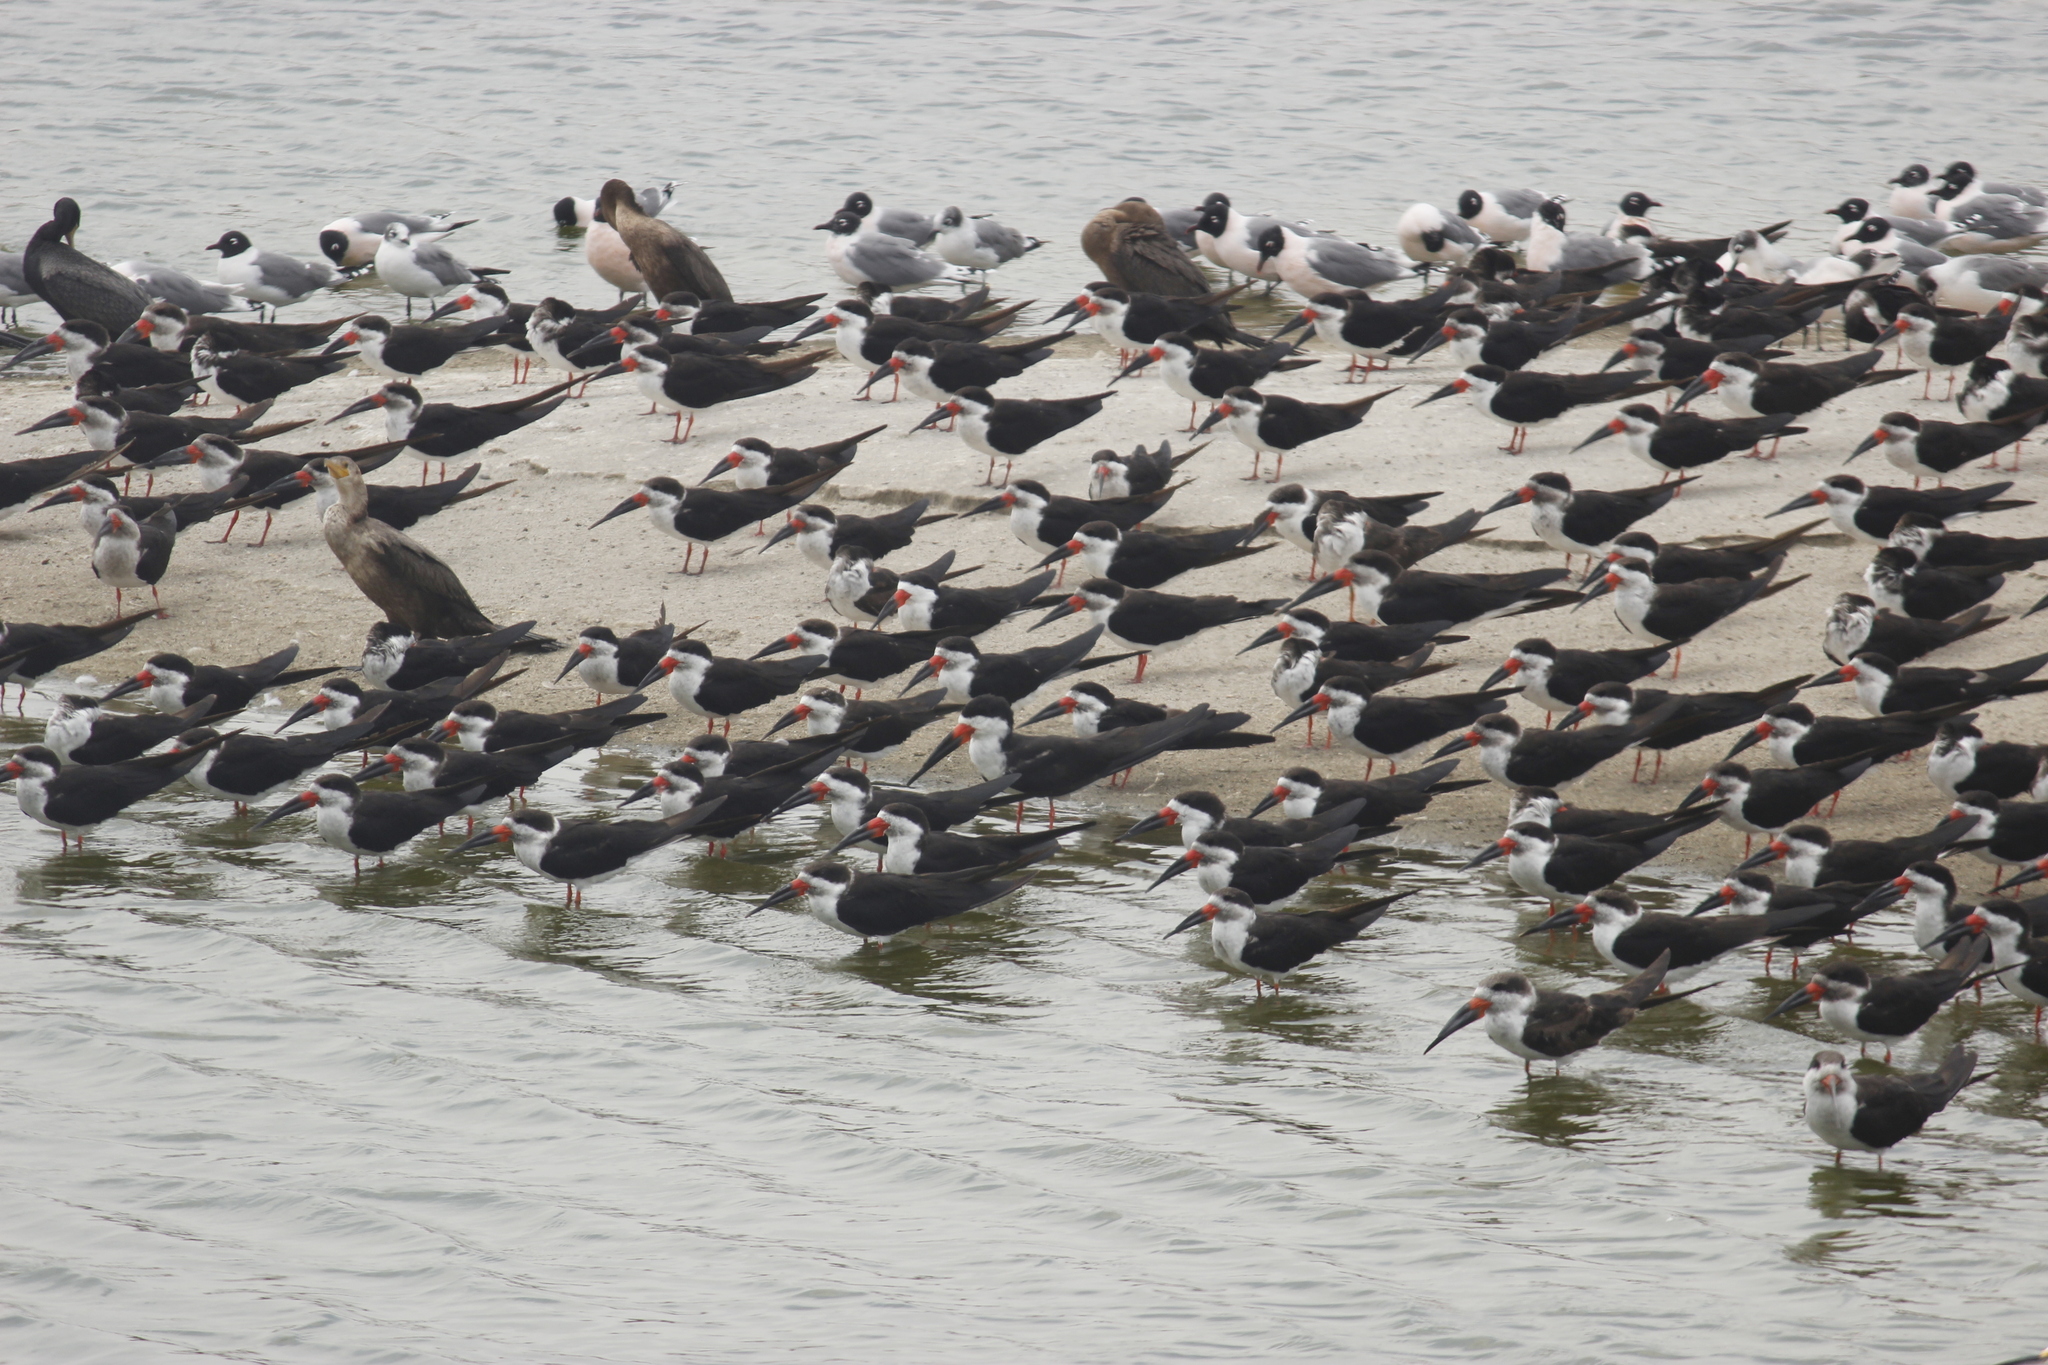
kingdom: Animalia
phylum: Chordata
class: Aves
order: Charadriiformes
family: Laridae
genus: Rynchops
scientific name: Rynchops niger
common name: Black skimmer
